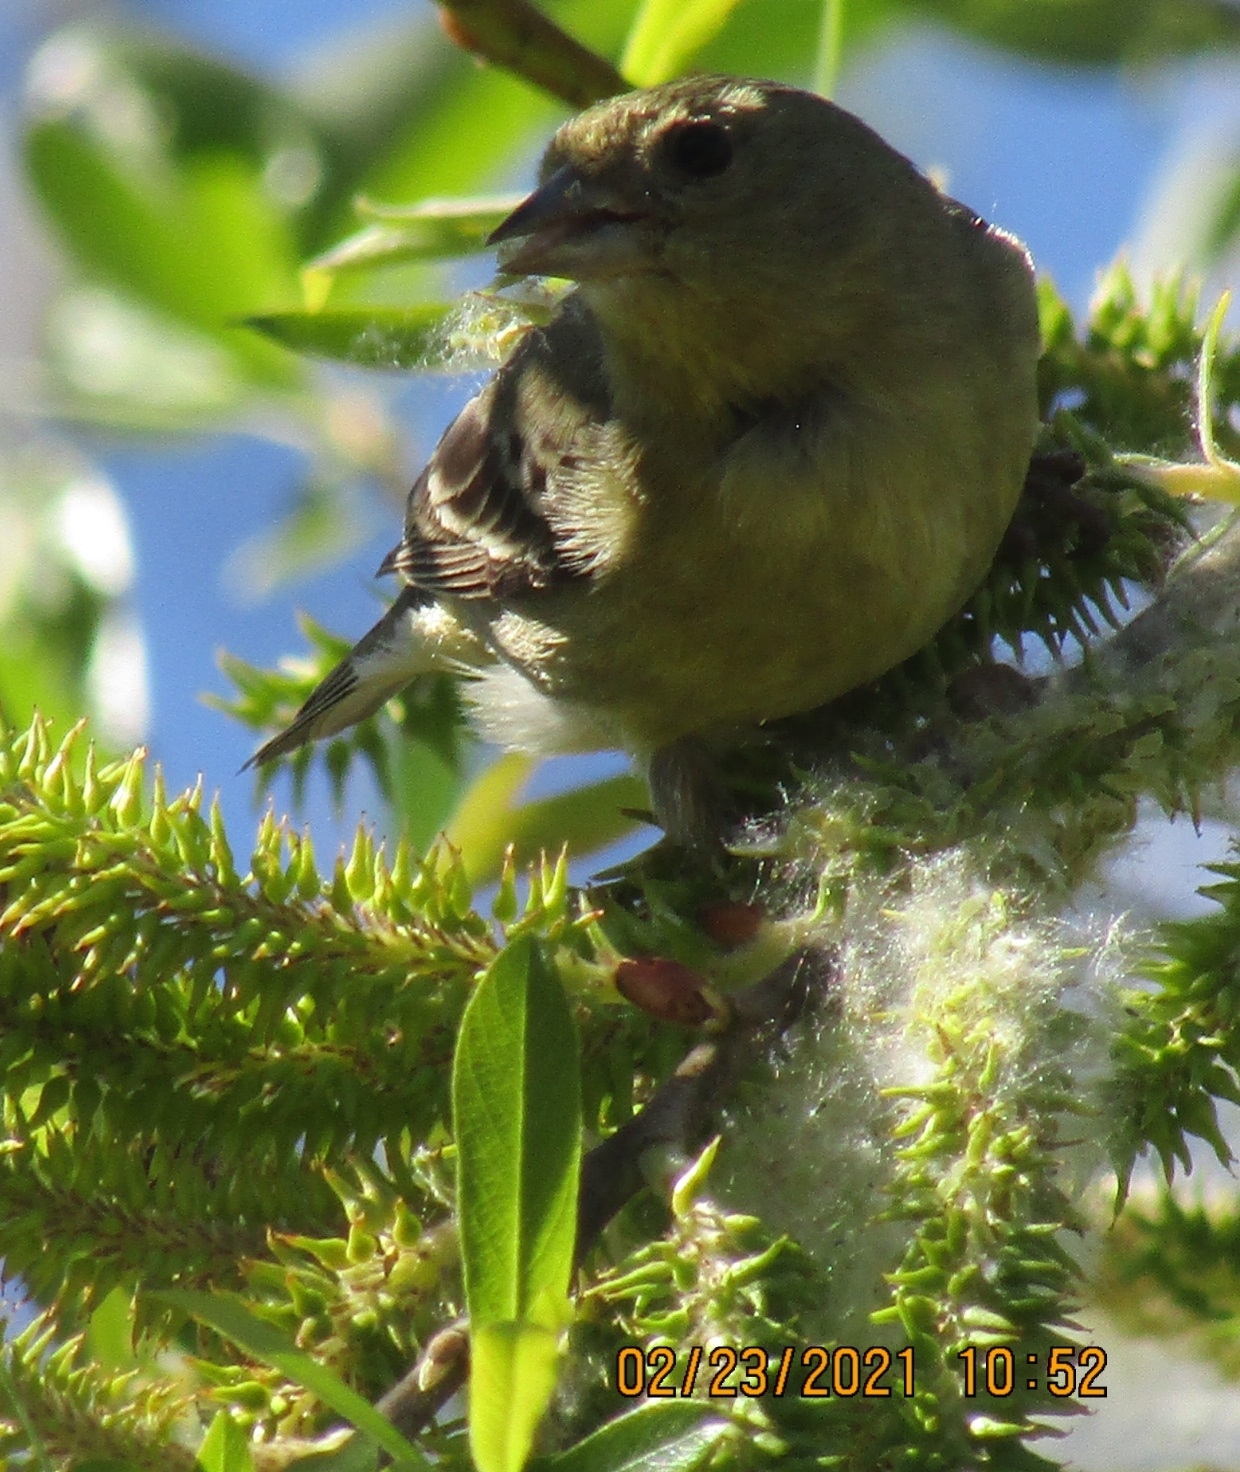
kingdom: Animalia
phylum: Chordata
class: Aves
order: Passeriformes
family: Fringillidae
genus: Spinus
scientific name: Spinus psaltria
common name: Lesser goldfinch
